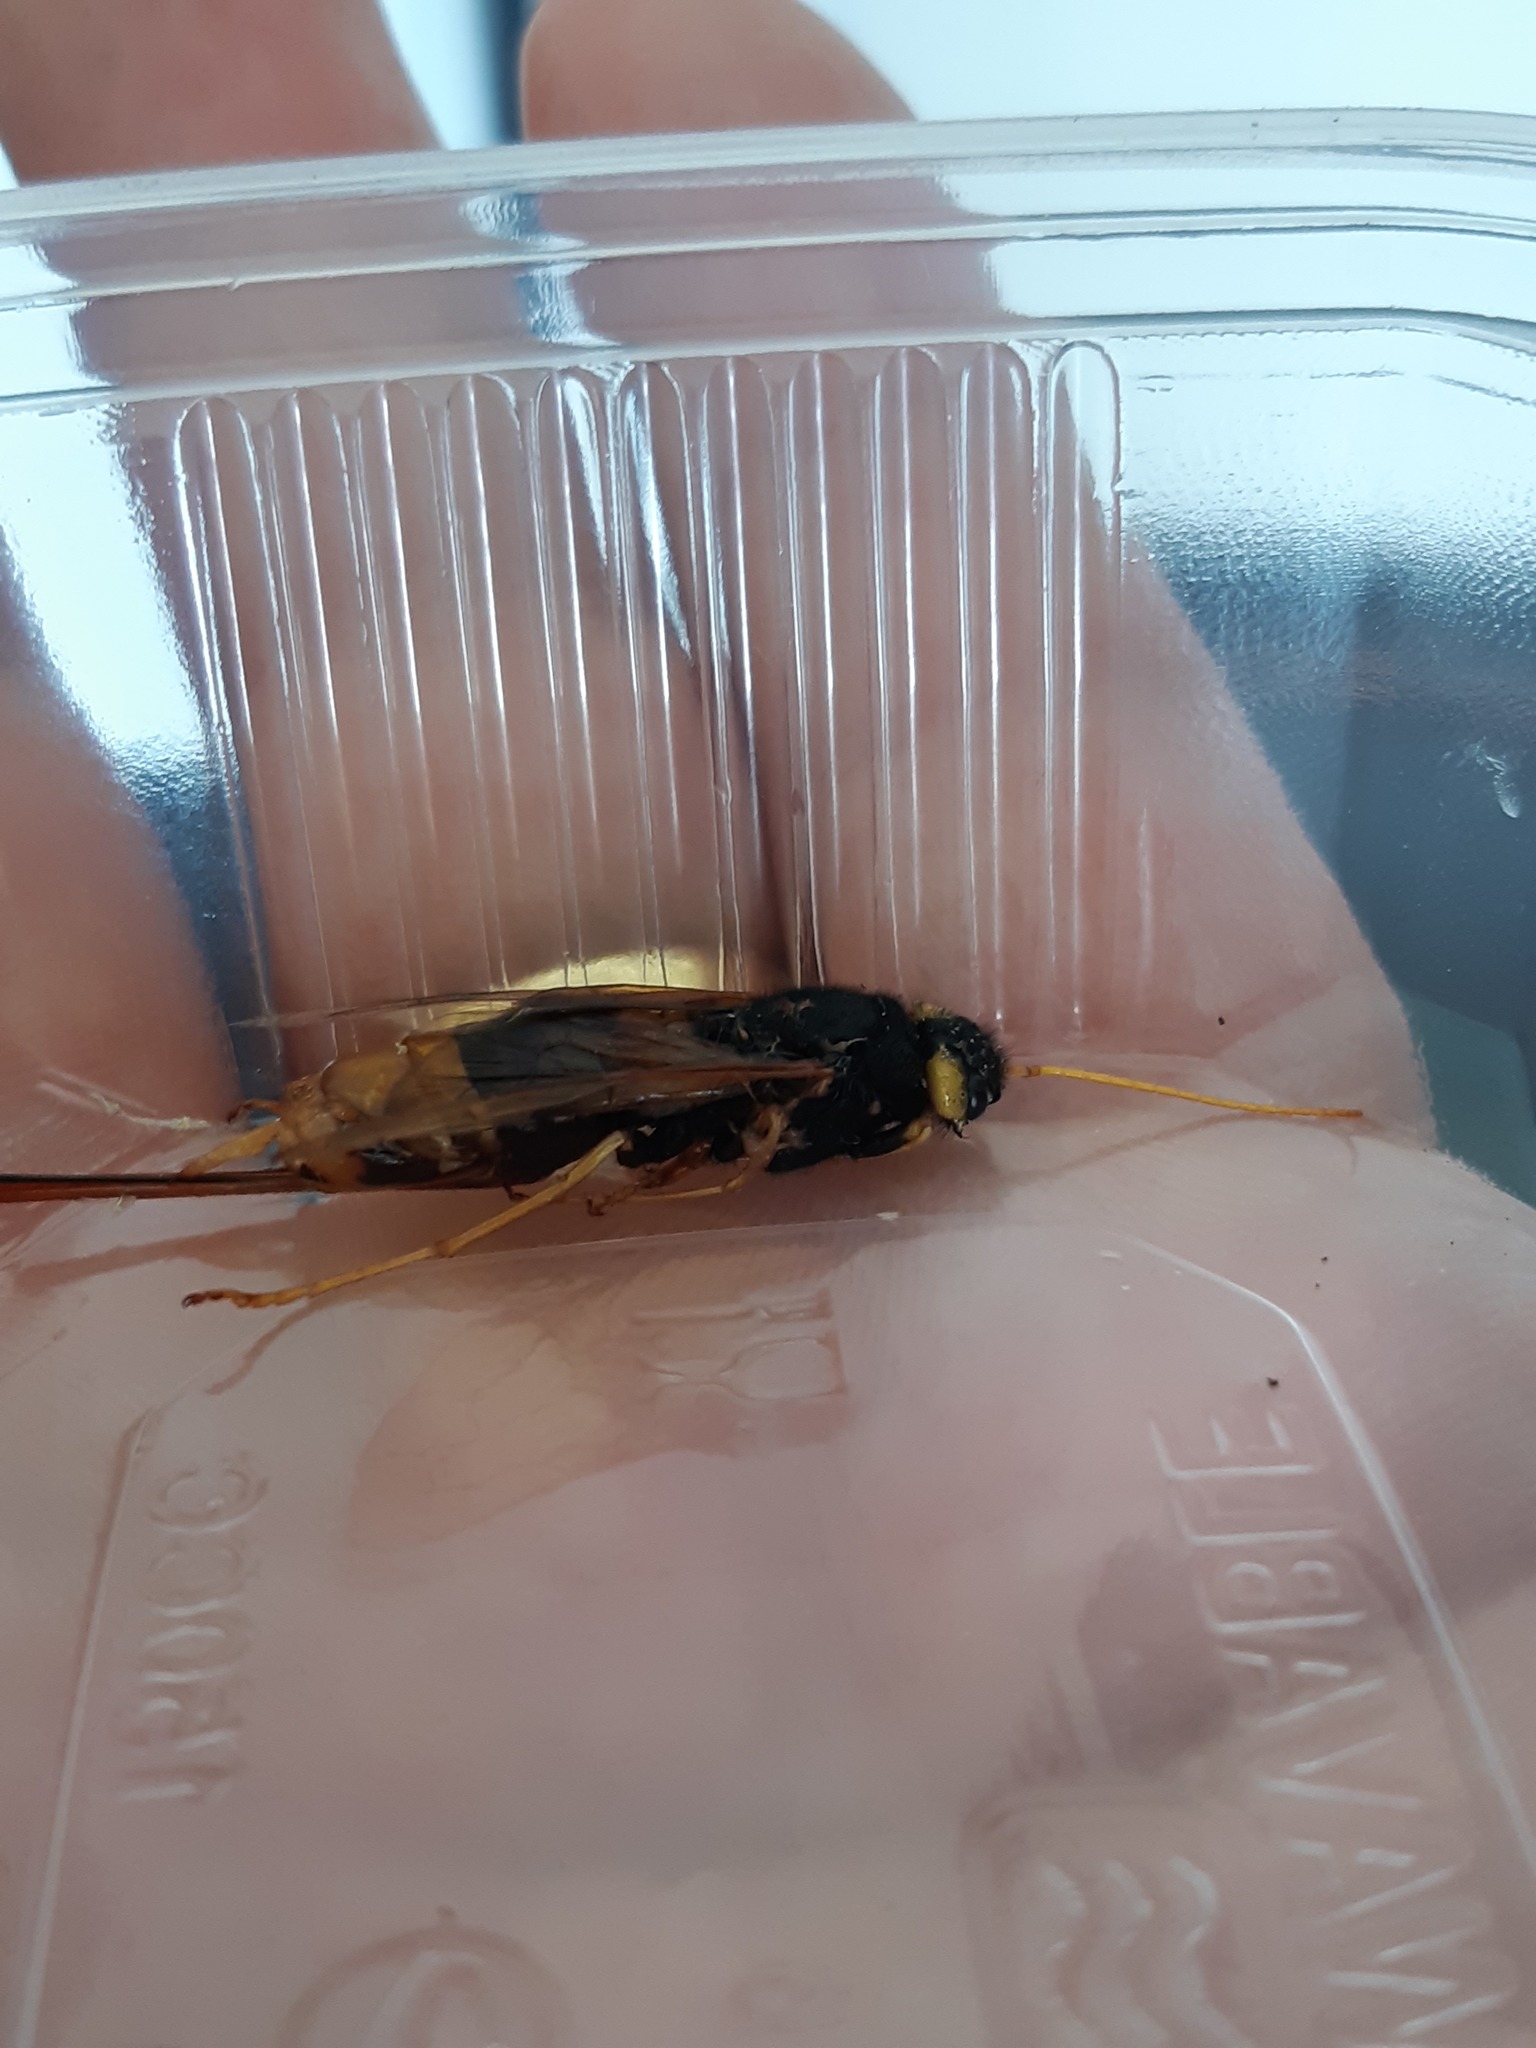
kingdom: Animalia
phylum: Arthropoda
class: Insecta
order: Hymenoptera
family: Siricidae
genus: Urocerus
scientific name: Urocerus gigas
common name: Giant woodwasp
